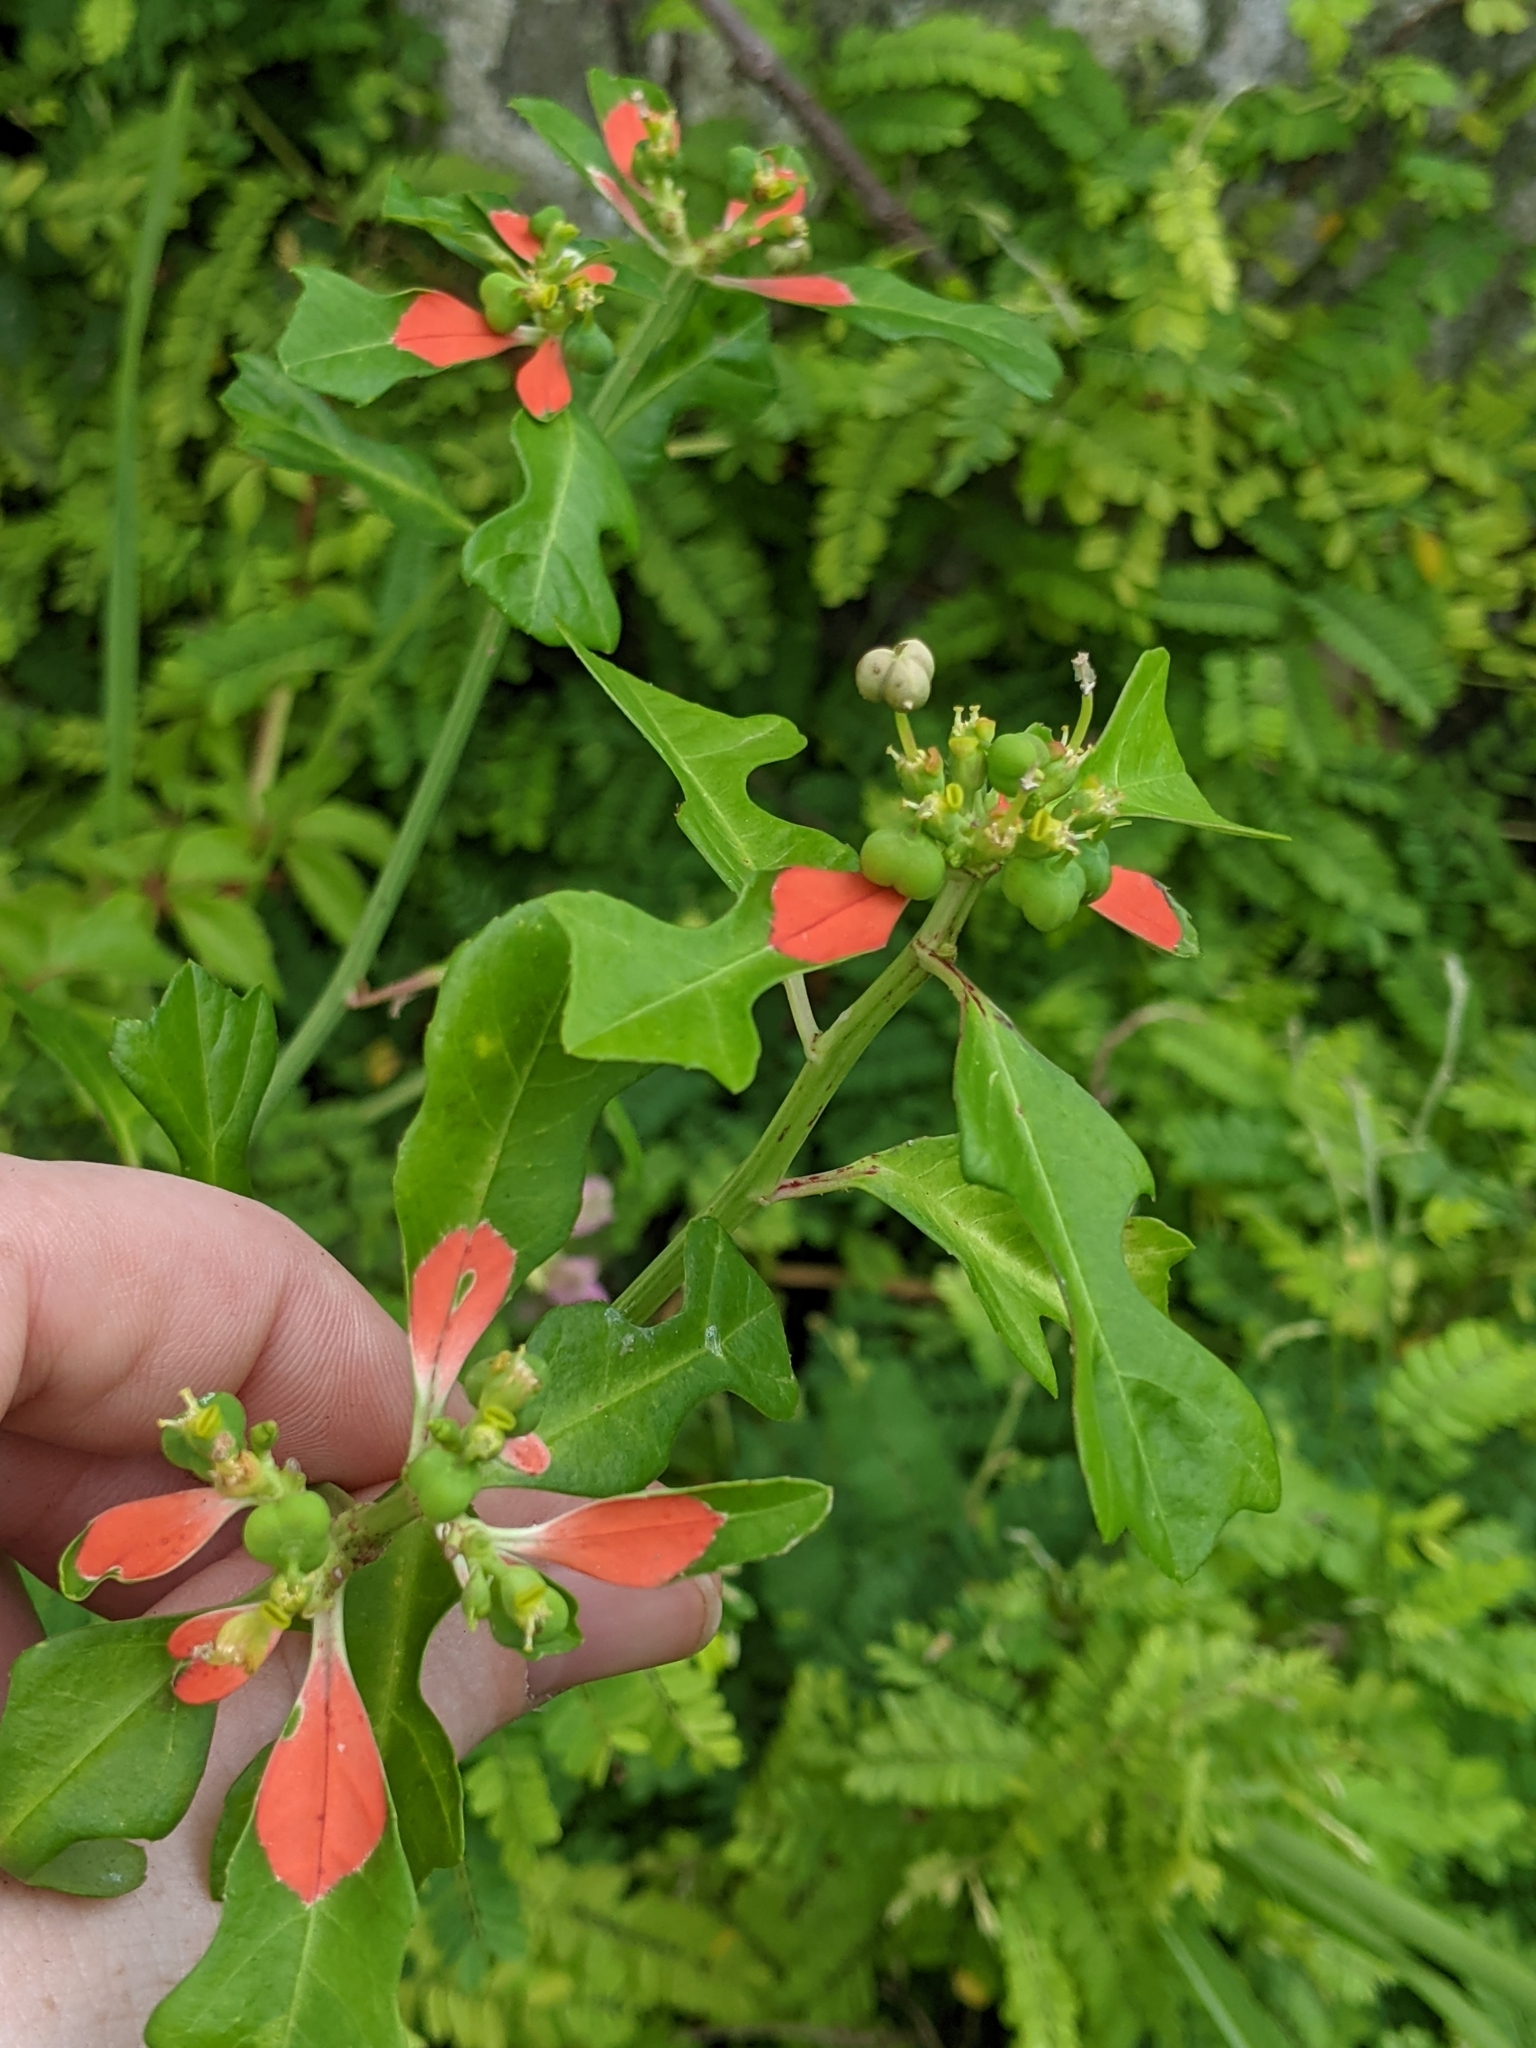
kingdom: Plantae
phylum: Tracheophyta
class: Magnoliopsida
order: Malpighiales
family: Euphorbiaceae
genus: Euphorbia
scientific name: Euphorbia heterophylla
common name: Mexican fireplant
